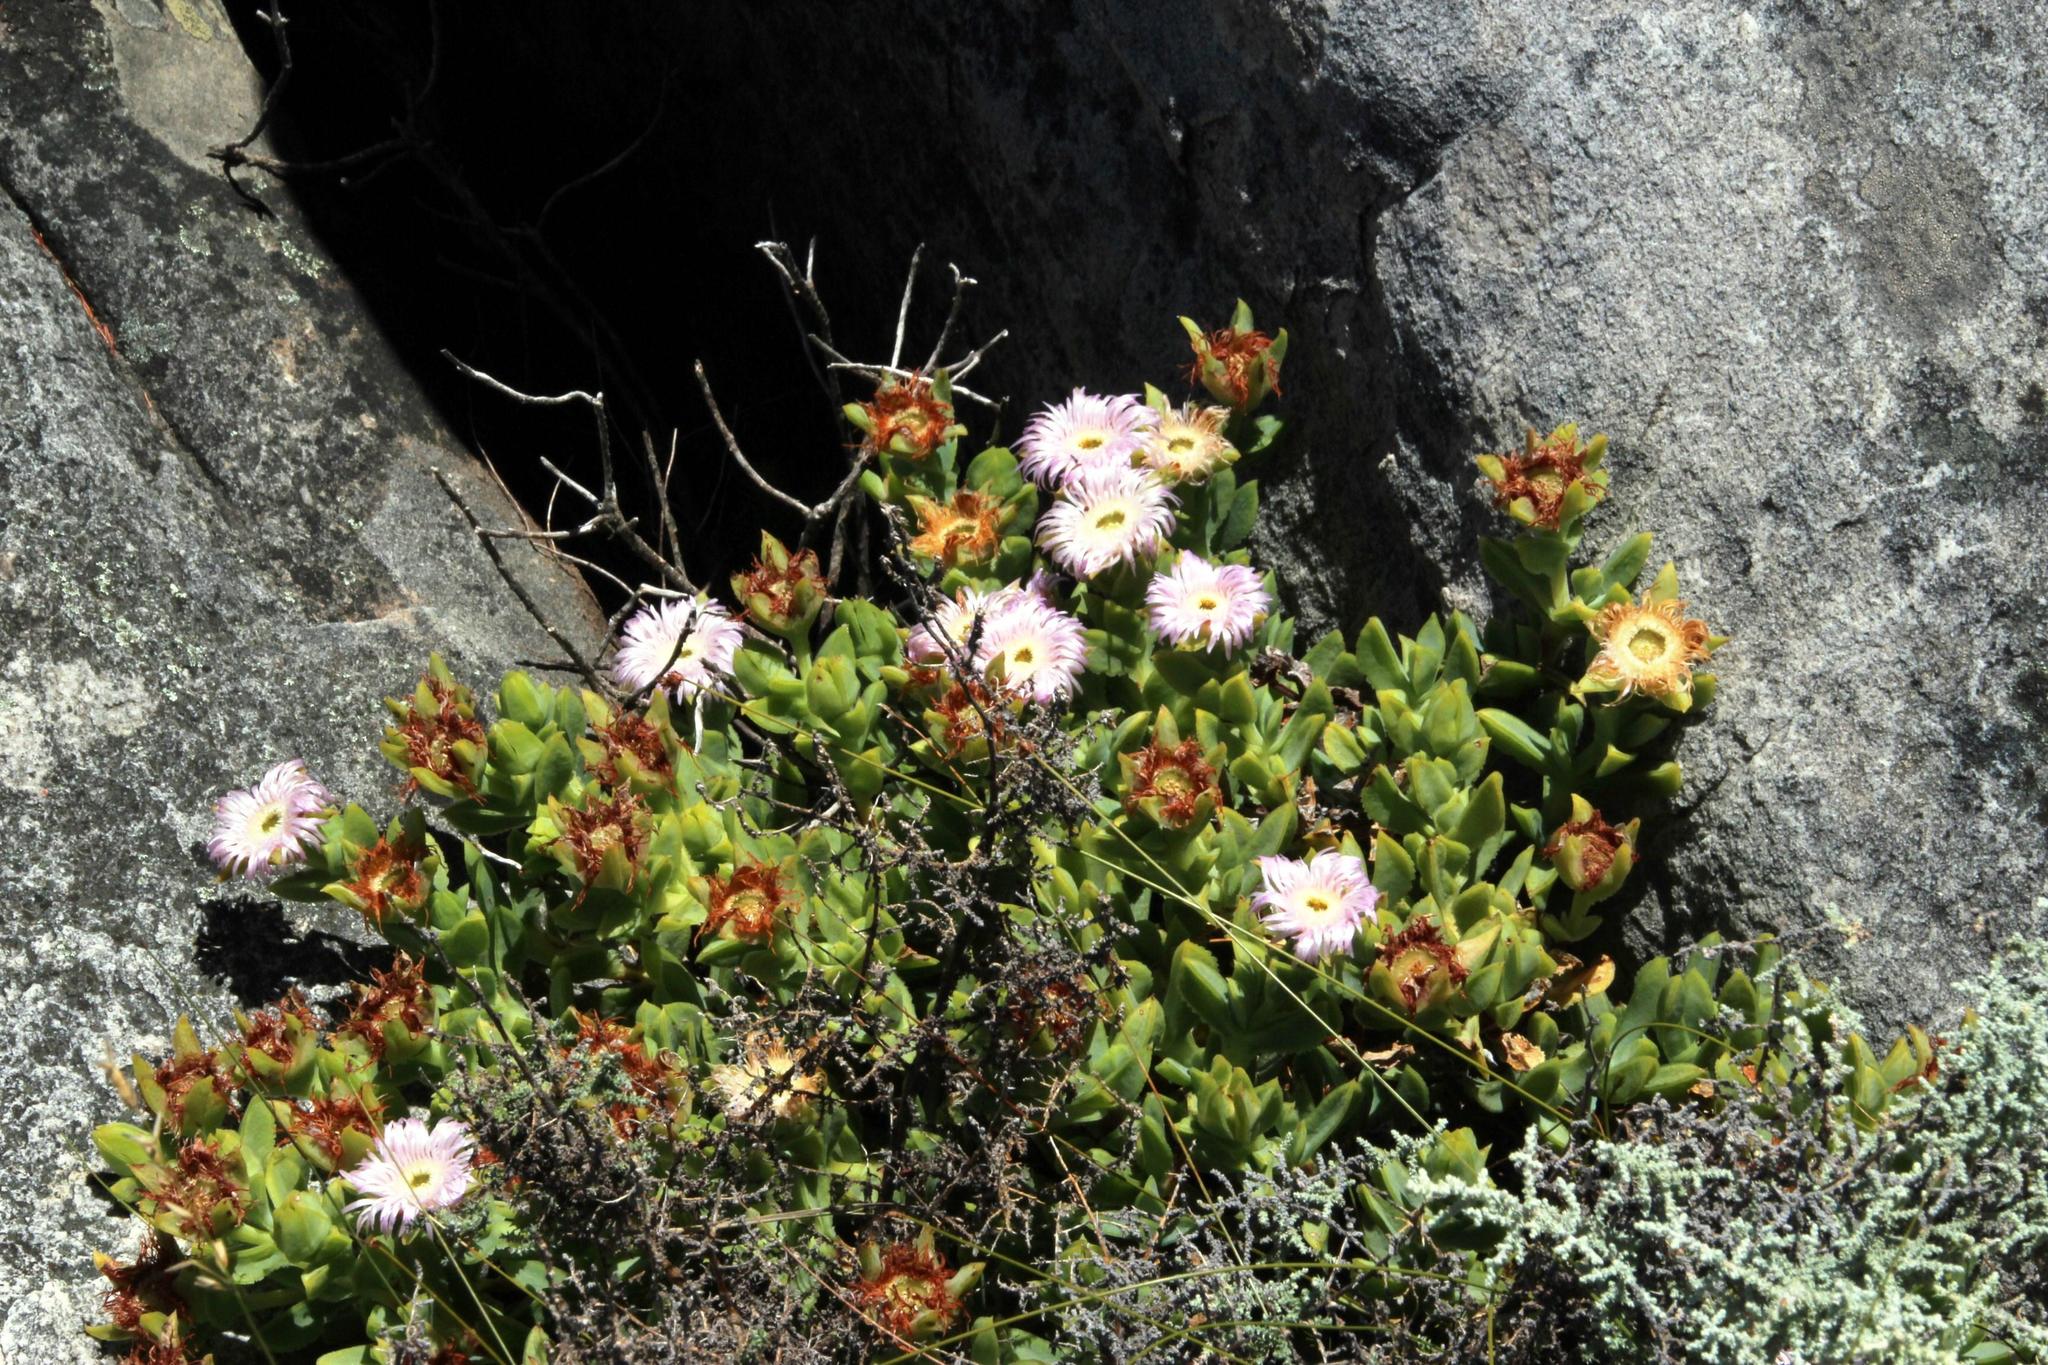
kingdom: Plantae
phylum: Tracheophyta
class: Magnoliopsida
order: Caryophyllales
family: Aizoaceae
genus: Erepsia
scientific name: Erepsia heteropetala
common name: Lesser sea-fig
